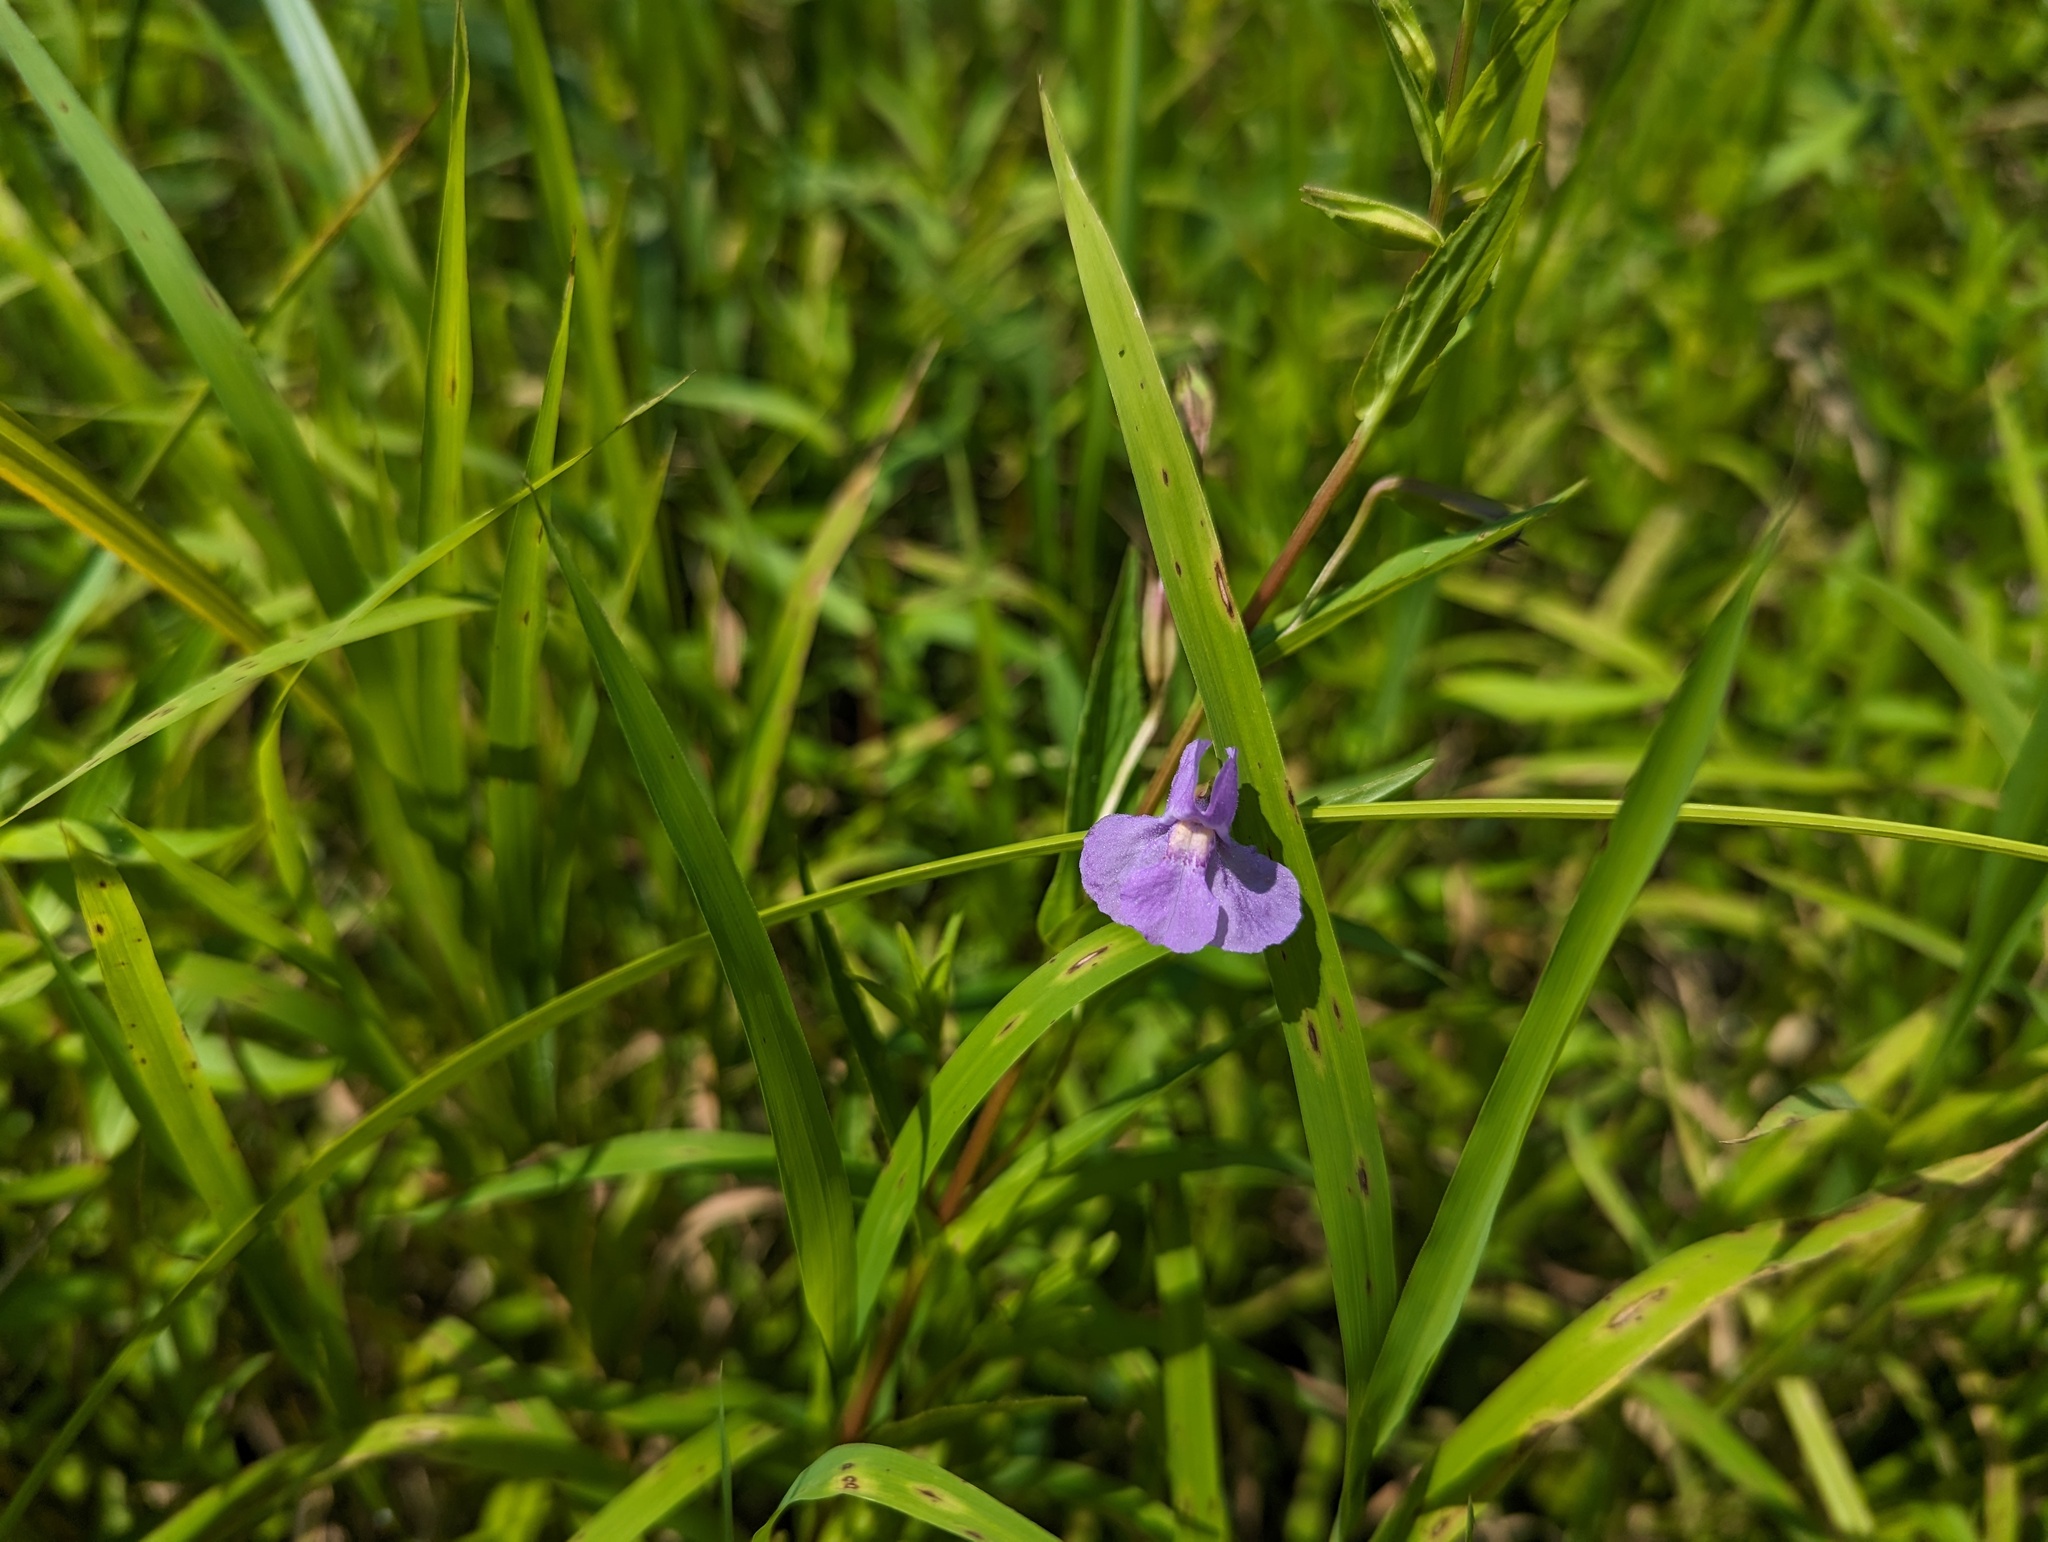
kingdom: Plantae
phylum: Tracheophyta
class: Magnoliopsida
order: Lamiales
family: Phrymaceae
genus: Mimulus
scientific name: Mimulus ringens
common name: Allegheny monkeyflower
